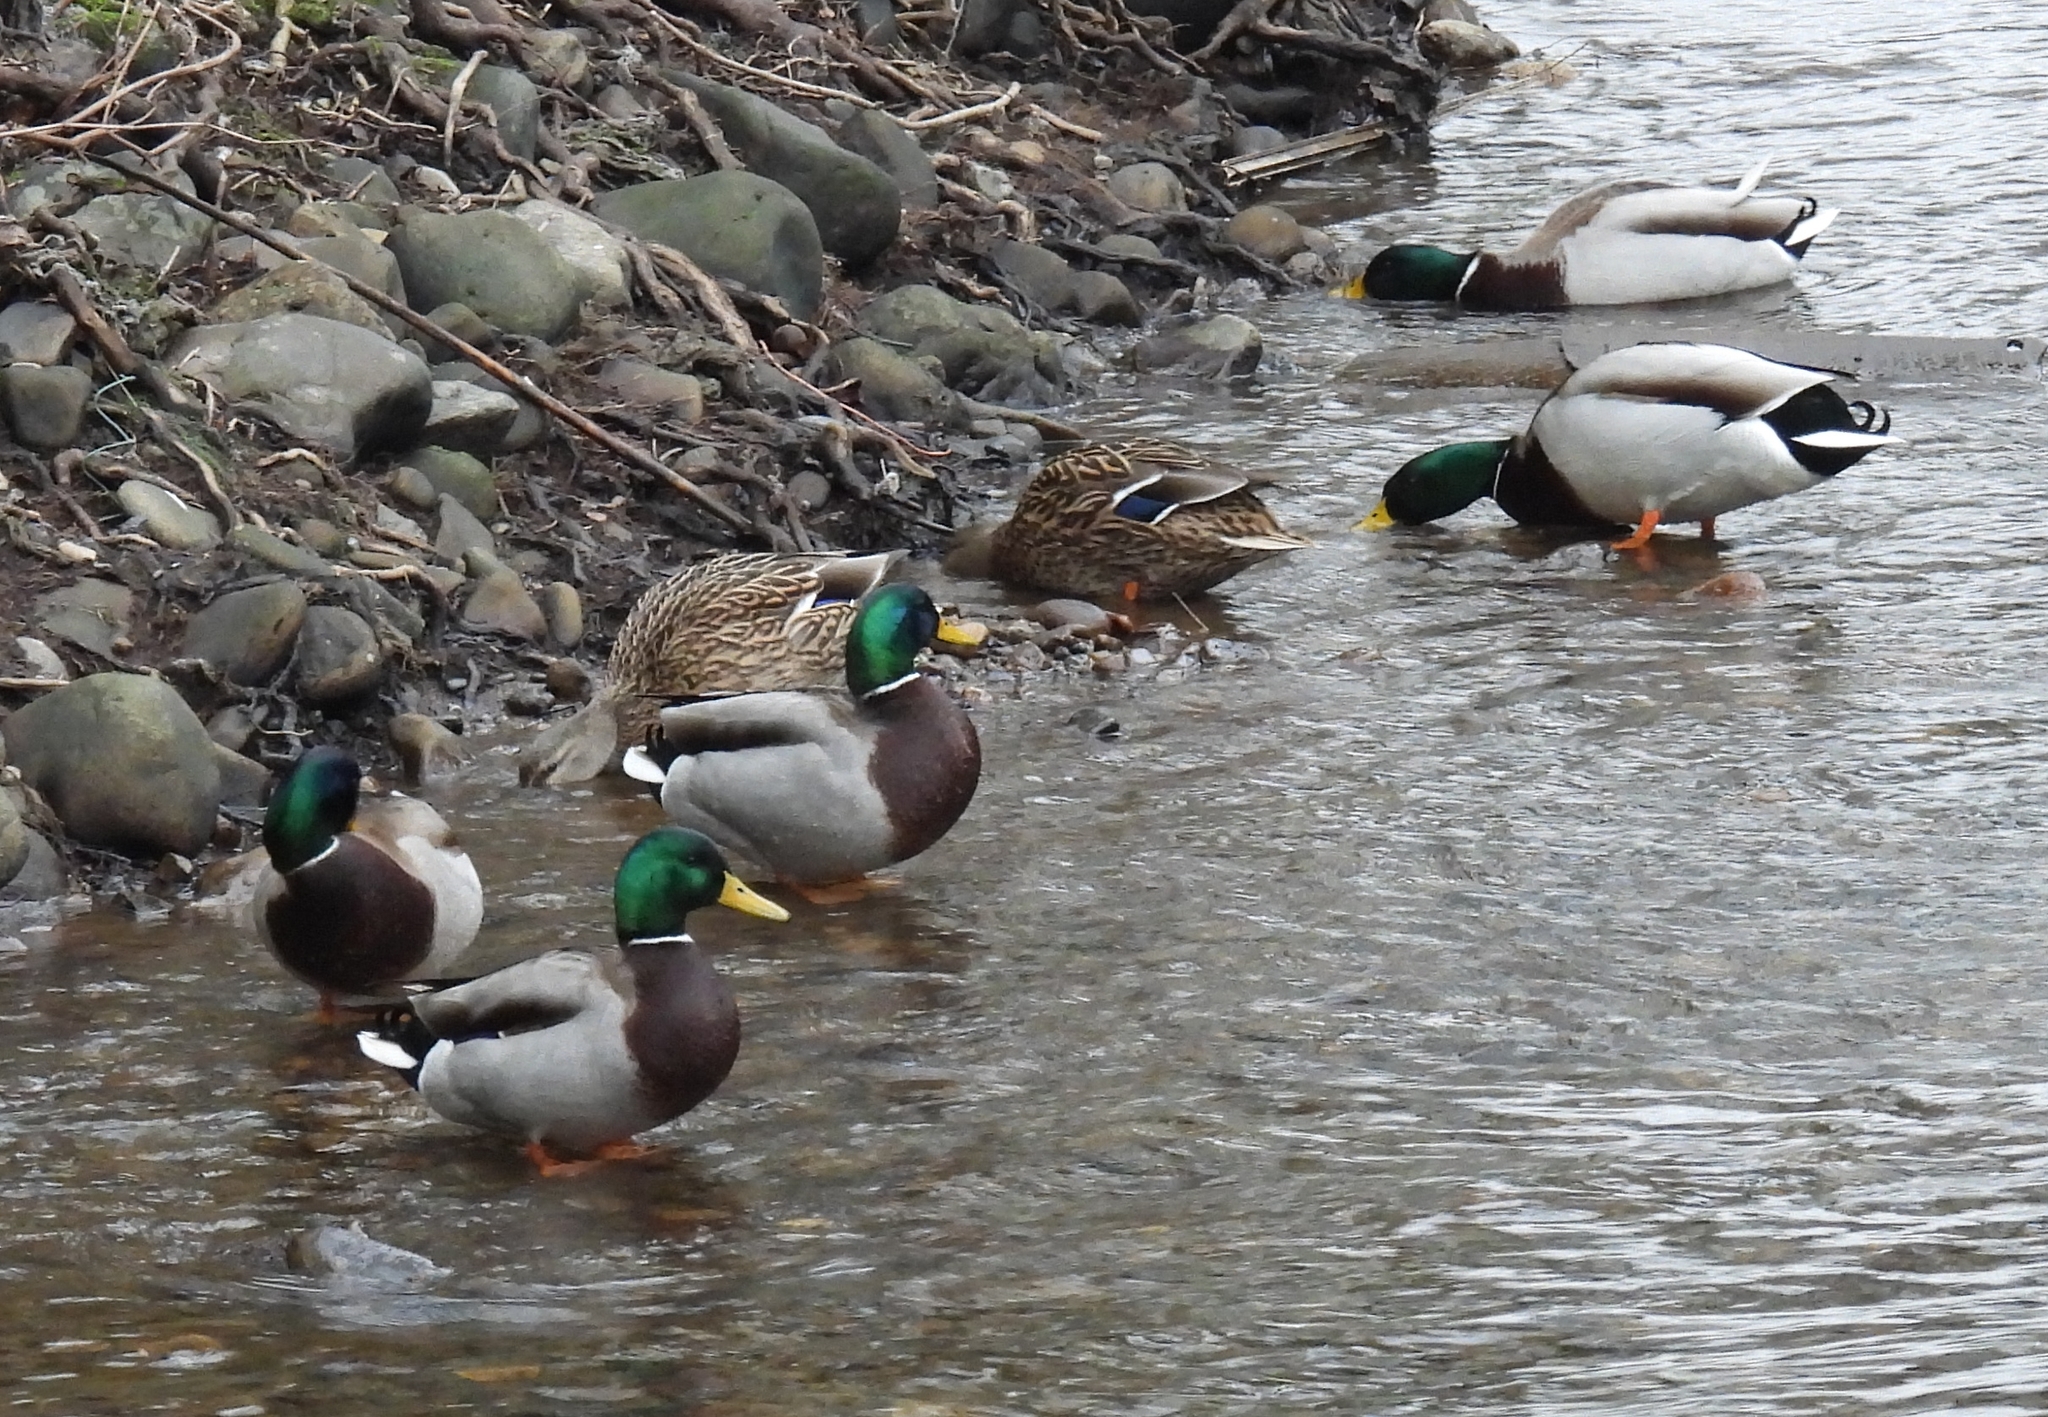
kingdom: Animalia
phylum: Chordata
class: Aves
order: Anseriformes
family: Anatidae
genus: Anas
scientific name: Anas platyrhynchos
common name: Mallard
